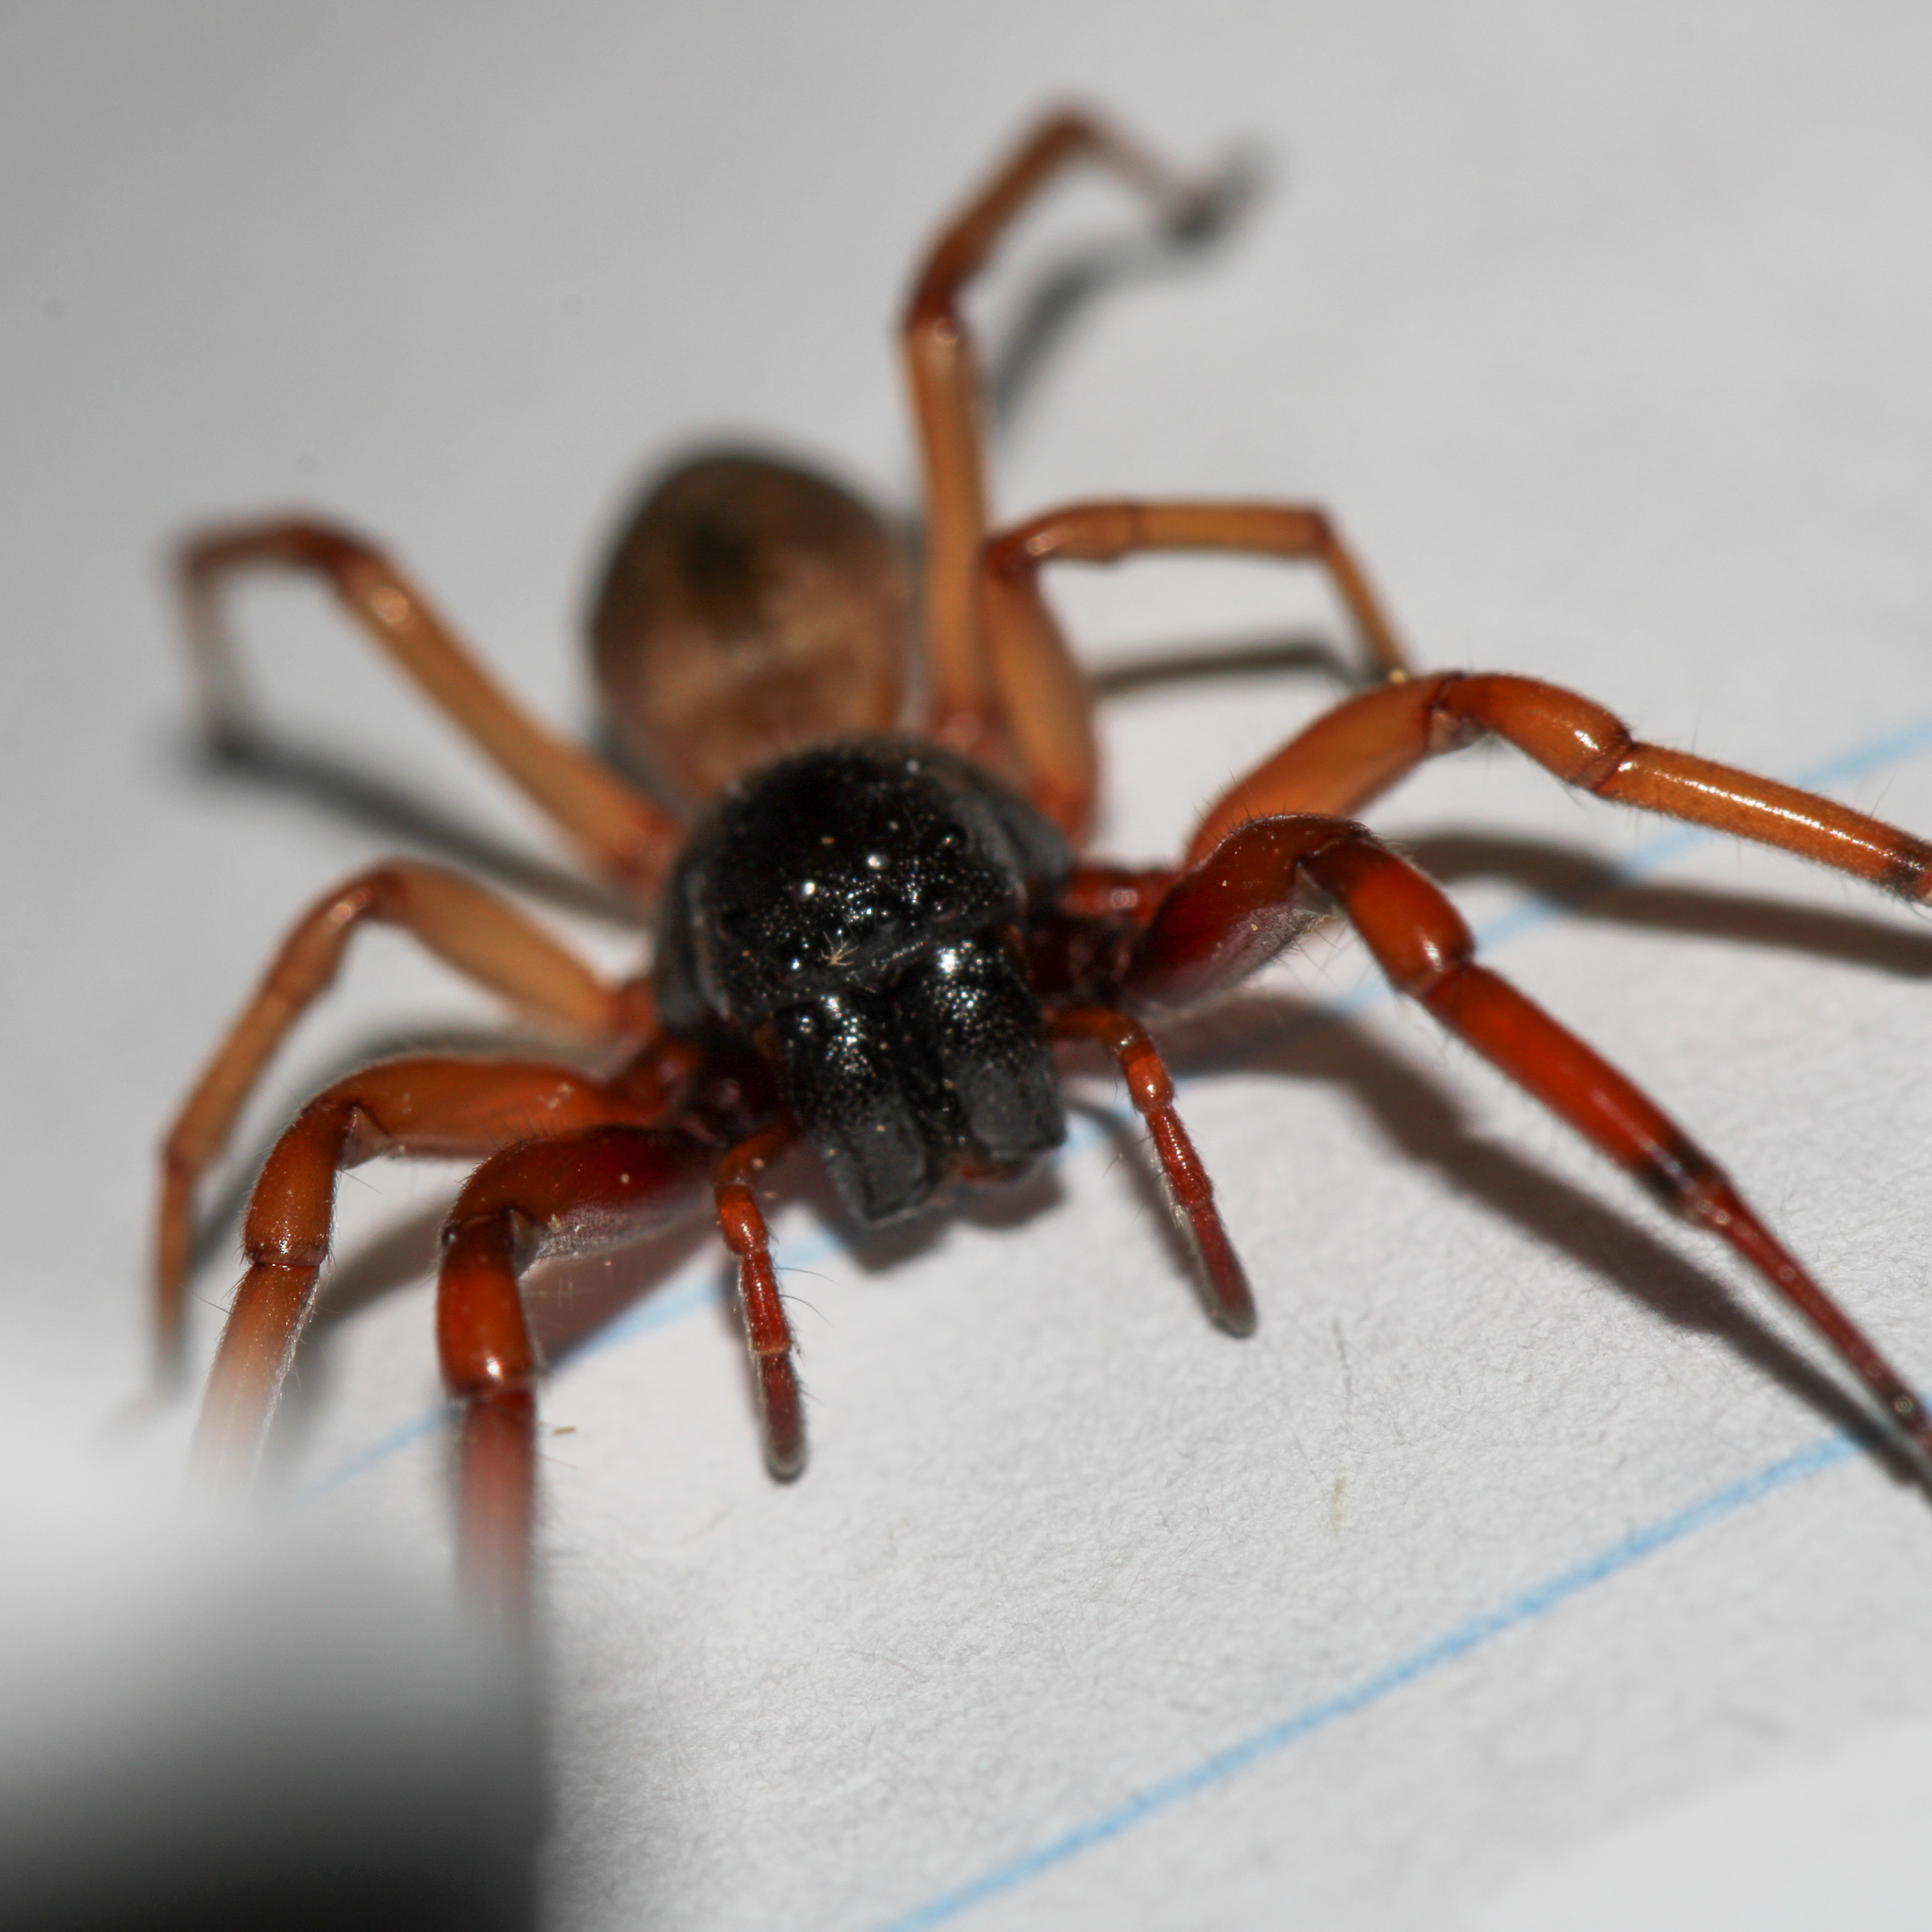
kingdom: Animalia
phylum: Arthropoda
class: Arachnida
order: Araneae
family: Trachelidae
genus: Trachelas
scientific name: Trachelas tranquillus
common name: Broad-faced sac spider
